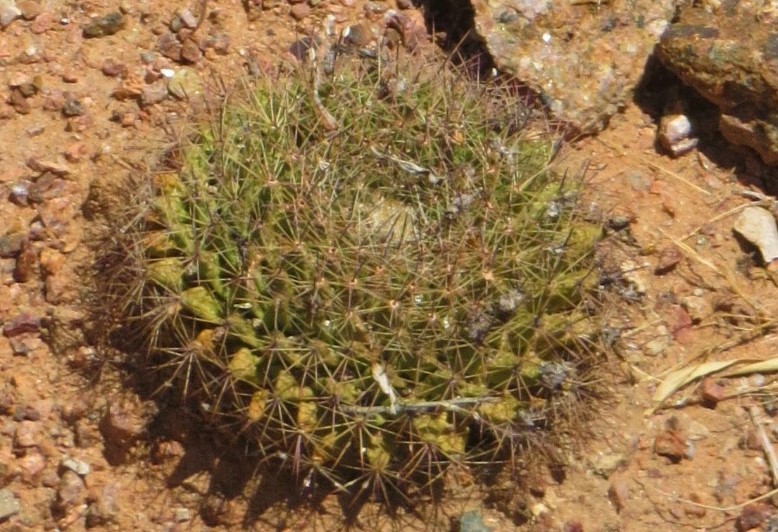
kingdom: Plantae
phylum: Tracheophyta
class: Magnoliopsida
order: Caryophyllales
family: Cactaceae
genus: Mammillaria
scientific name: Mammillaria heyderi
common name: Little nipple cactus
